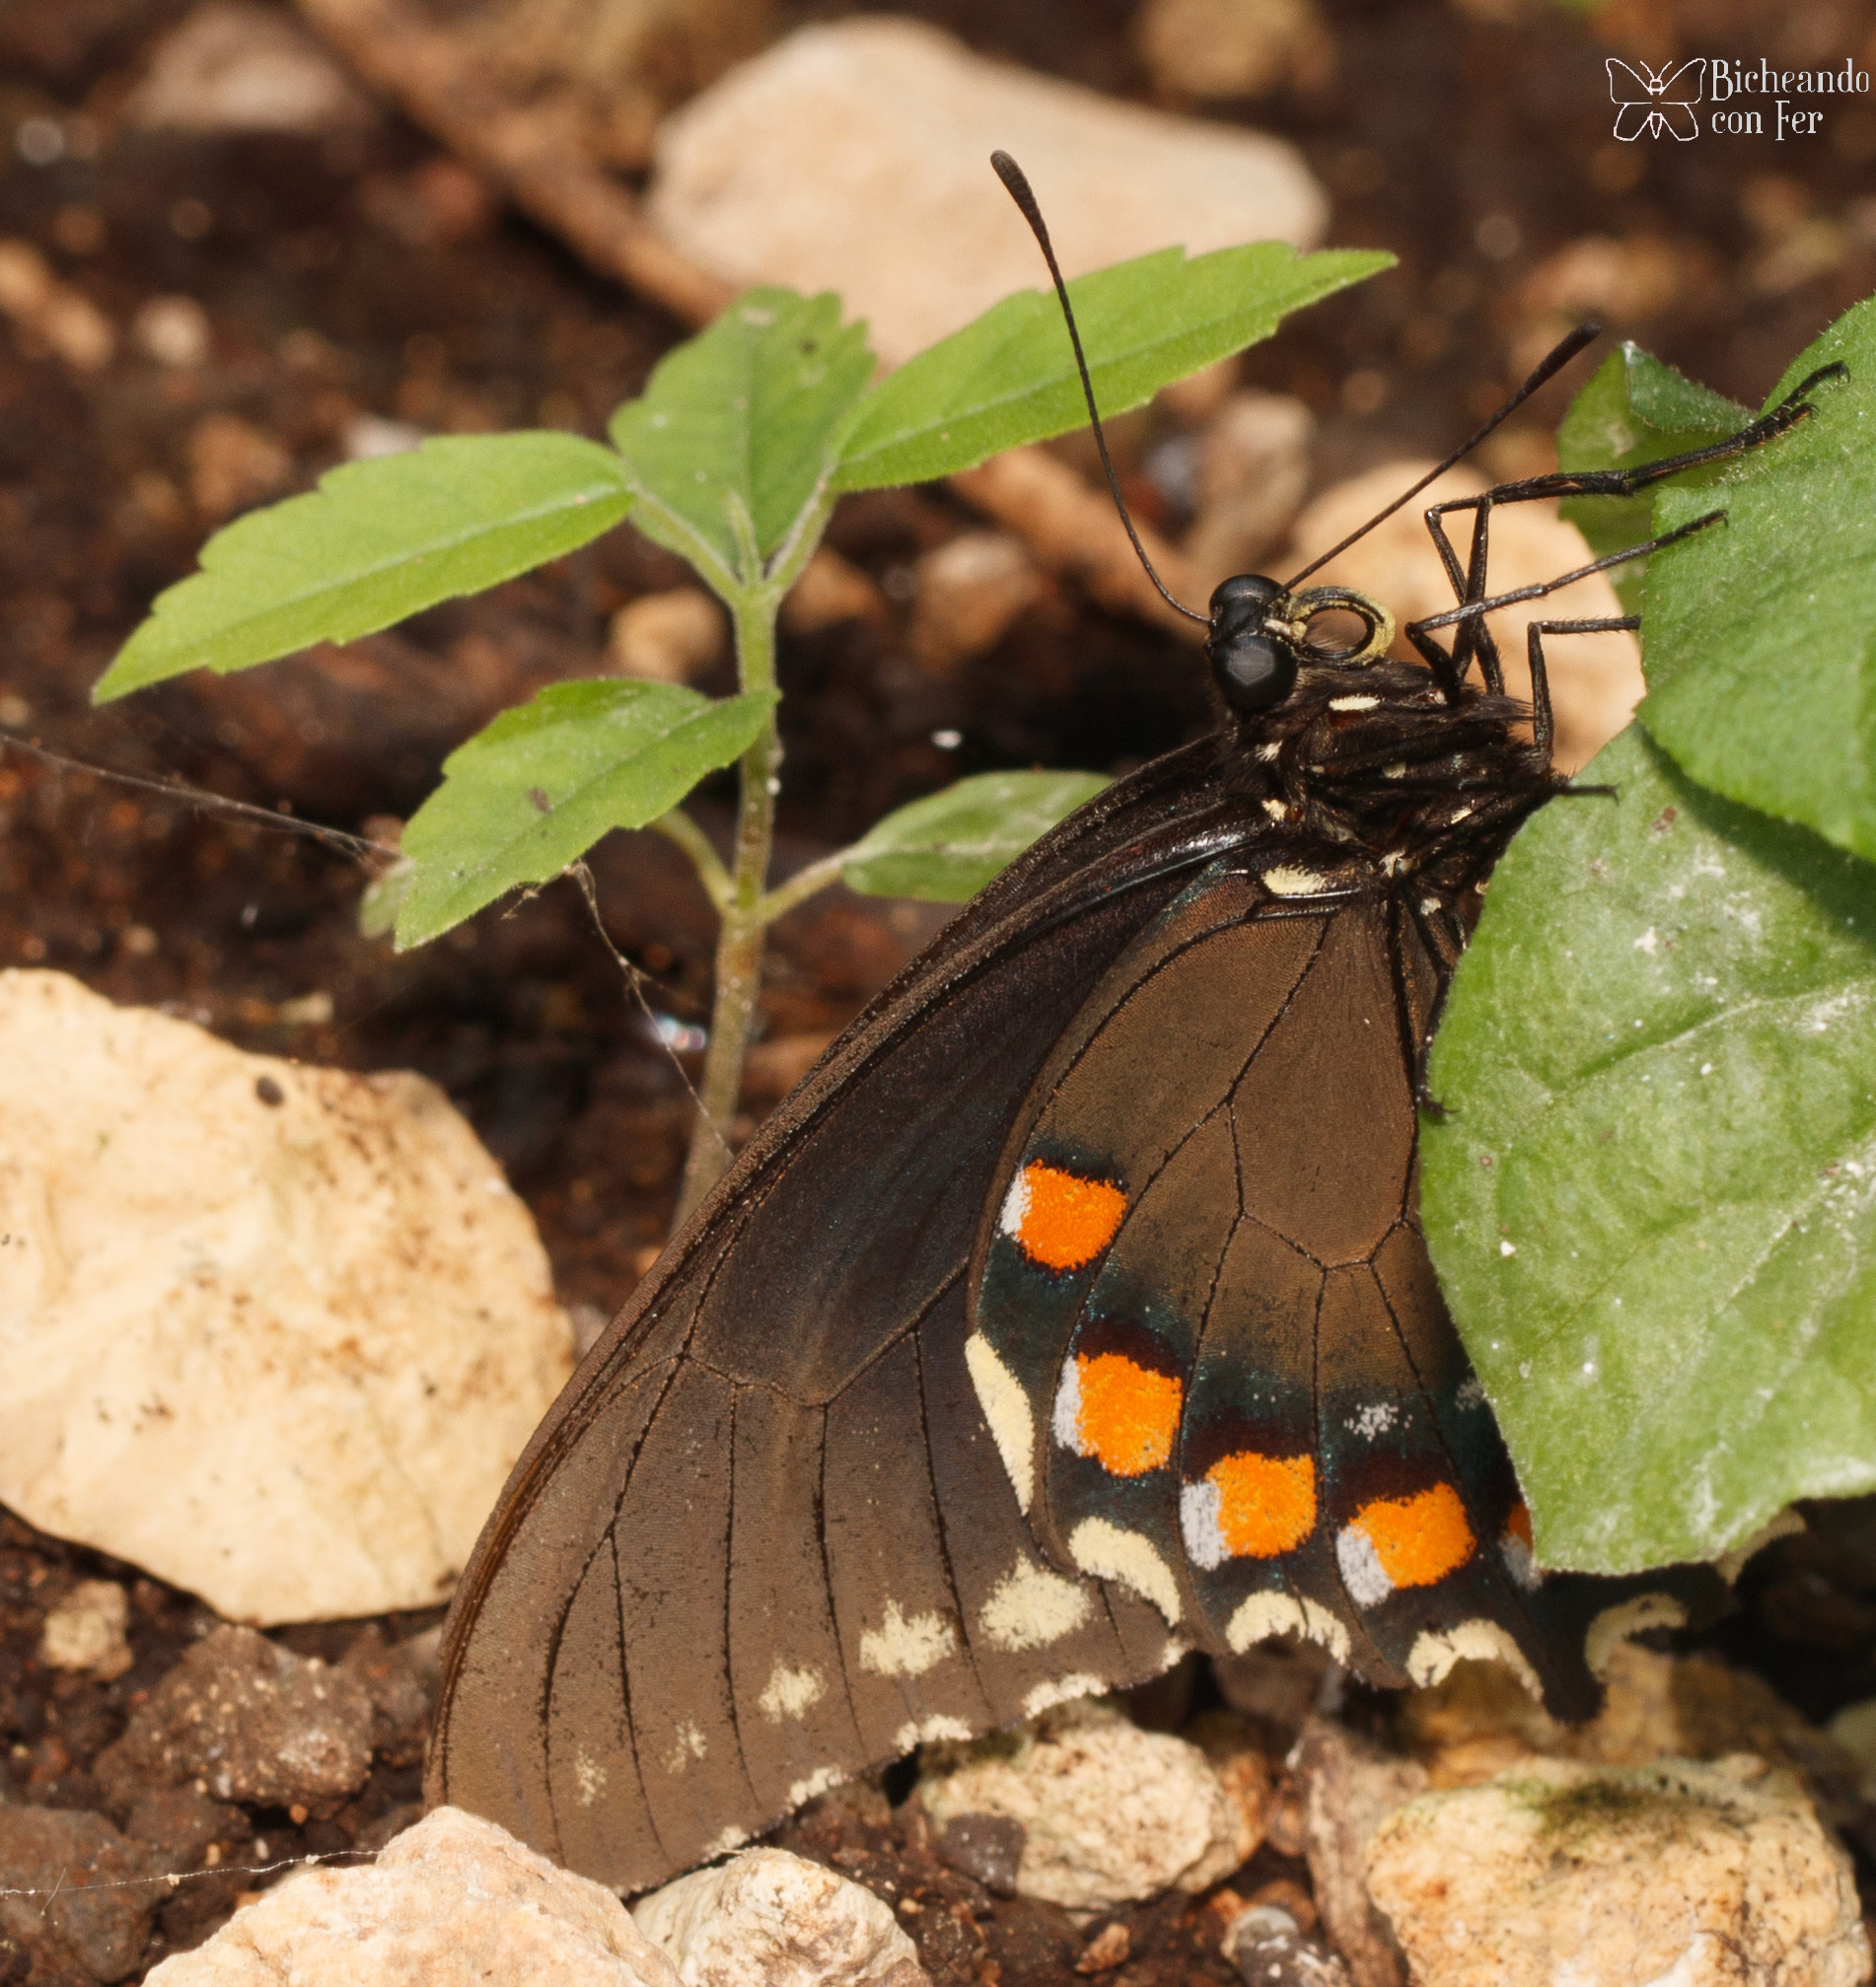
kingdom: Animalia
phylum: Arthropoda
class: Insecta
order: Lepidoptera
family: Papilionidae
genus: Battus
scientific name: Battus philenor
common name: Pipevine swallowtail
